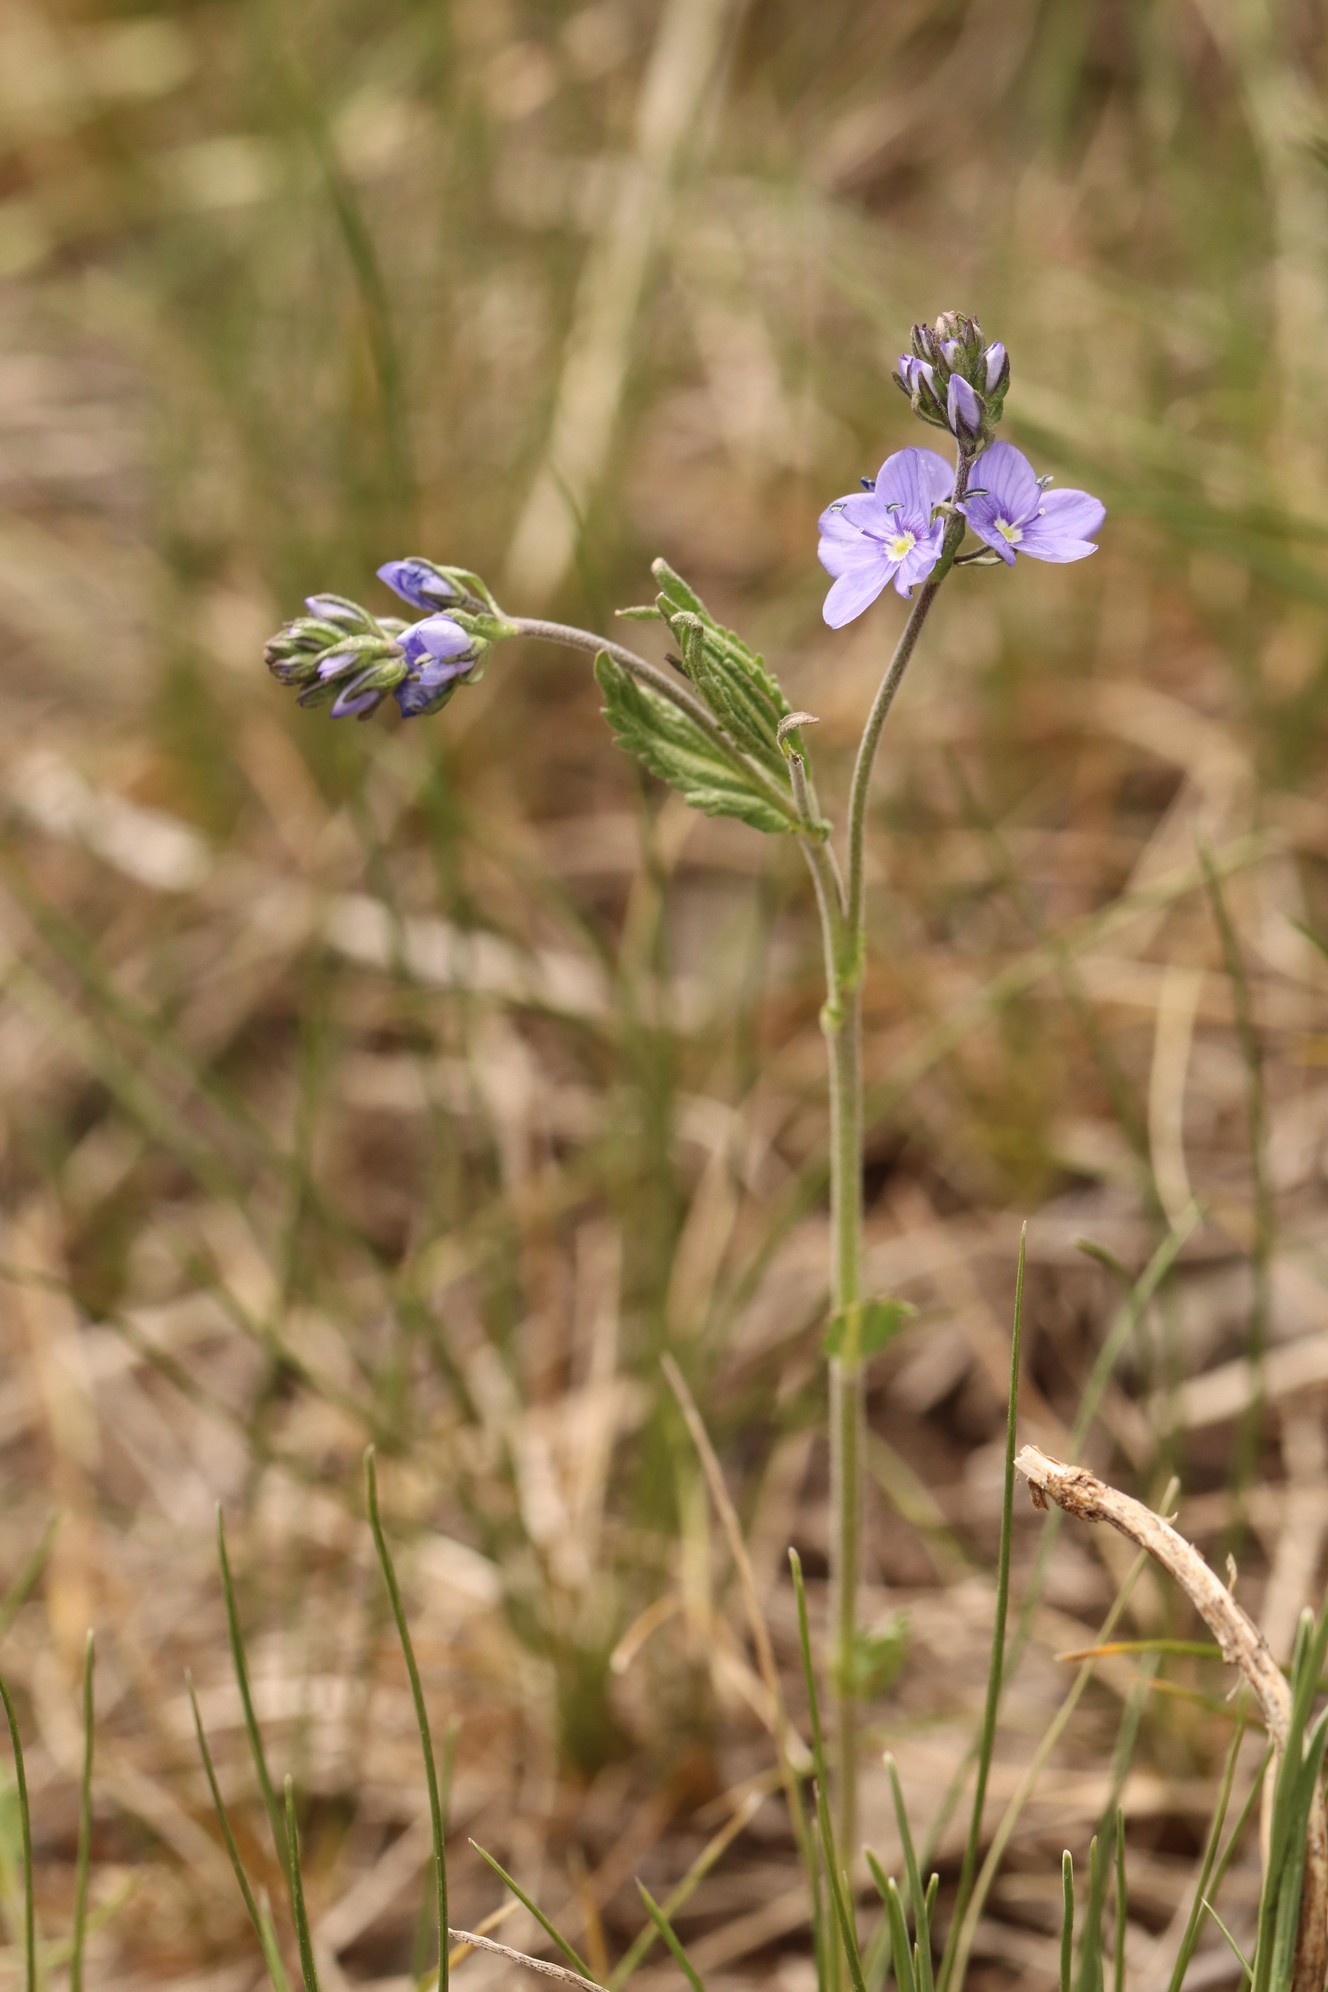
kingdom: Plantae
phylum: Tracheophyta
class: Magnoliopsida
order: Lamiales
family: Plantaginaceae
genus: Veronica
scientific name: Veronica krylovii
